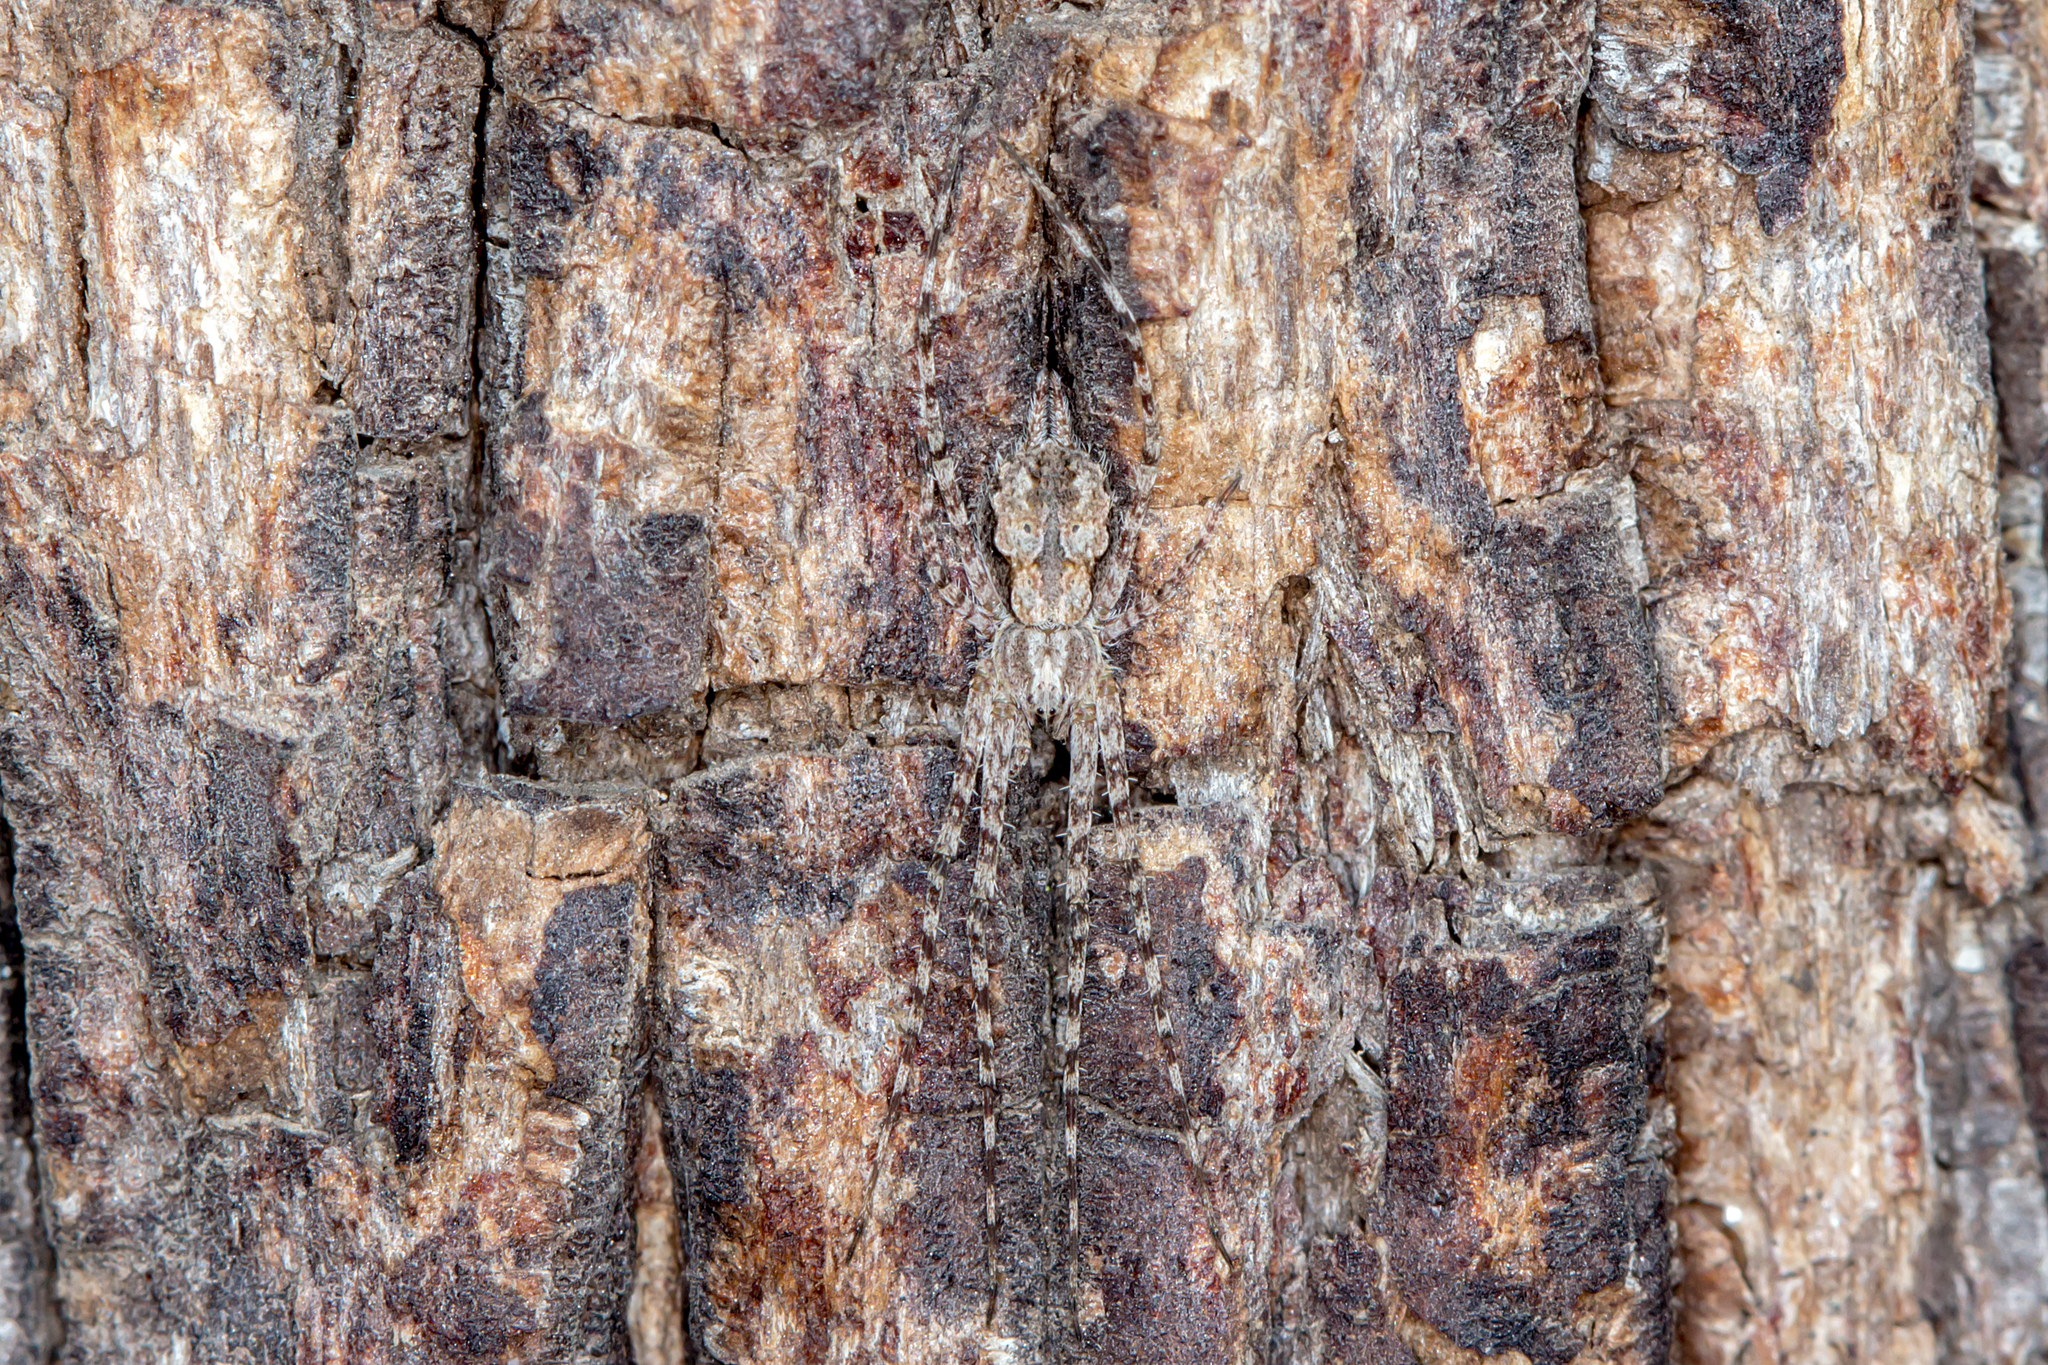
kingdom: Animalia
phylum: Arthropoda
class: Arachnida
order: Araneae
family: Hersiliidae
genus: Tamopsis
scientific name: Tamopsis fickerti
